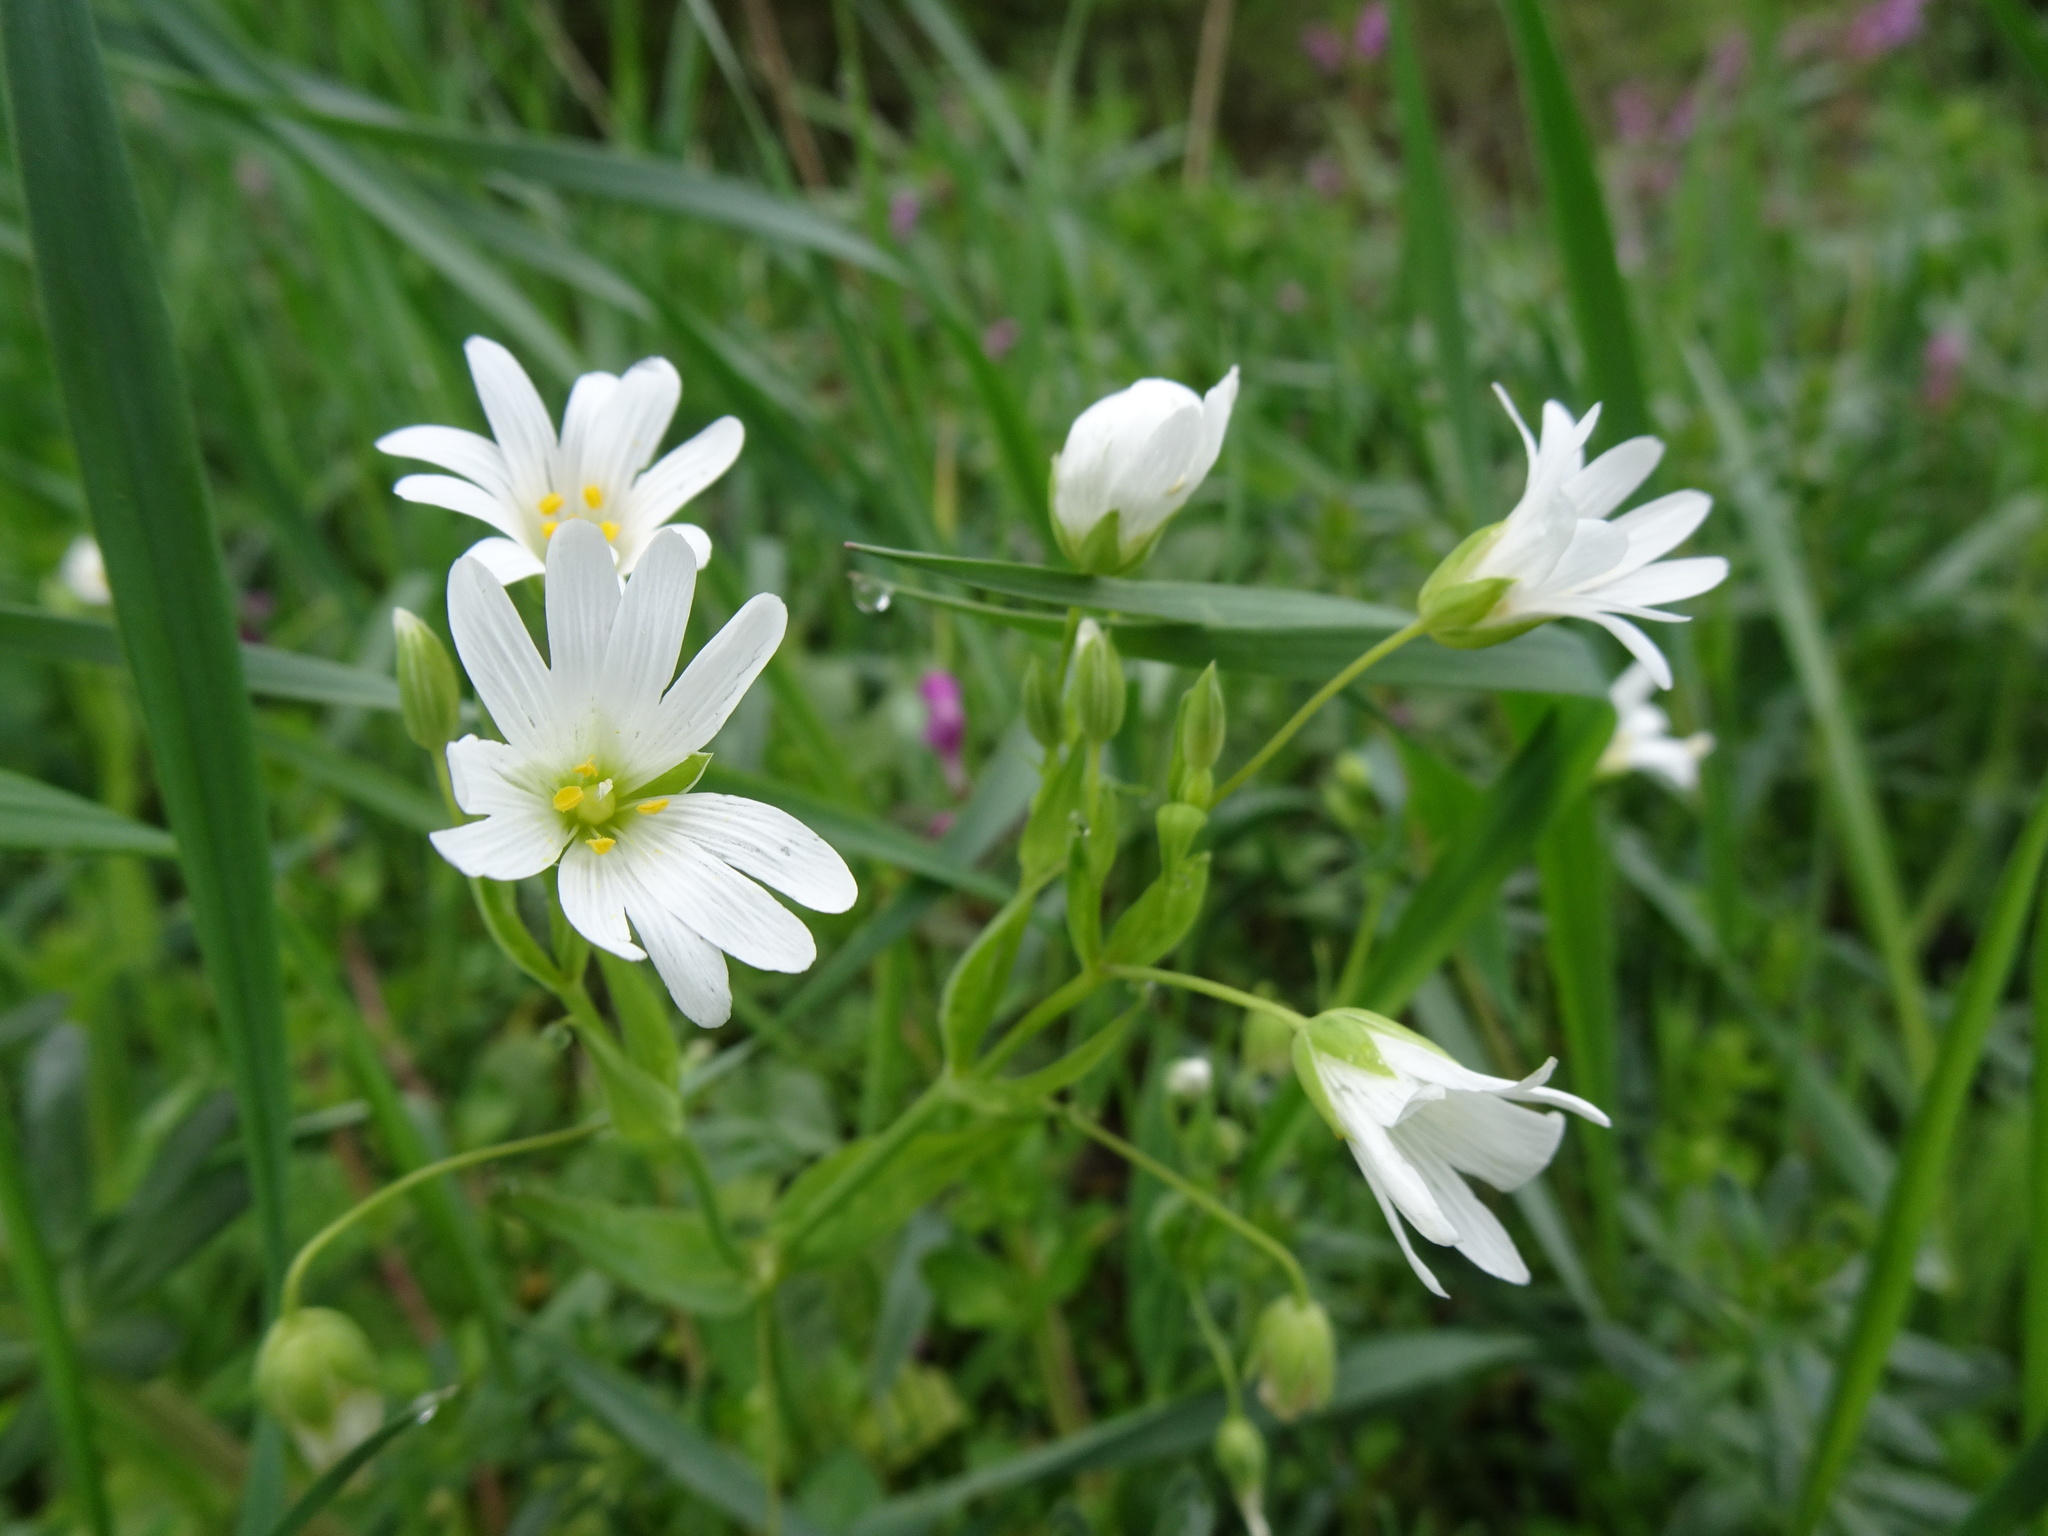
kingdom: Plantae
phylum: Tracheophyta
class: Magnoliopsida
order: Caryophyllales
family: Caryophyllaceae
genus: Rabelera
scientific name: Rabelera holostea
